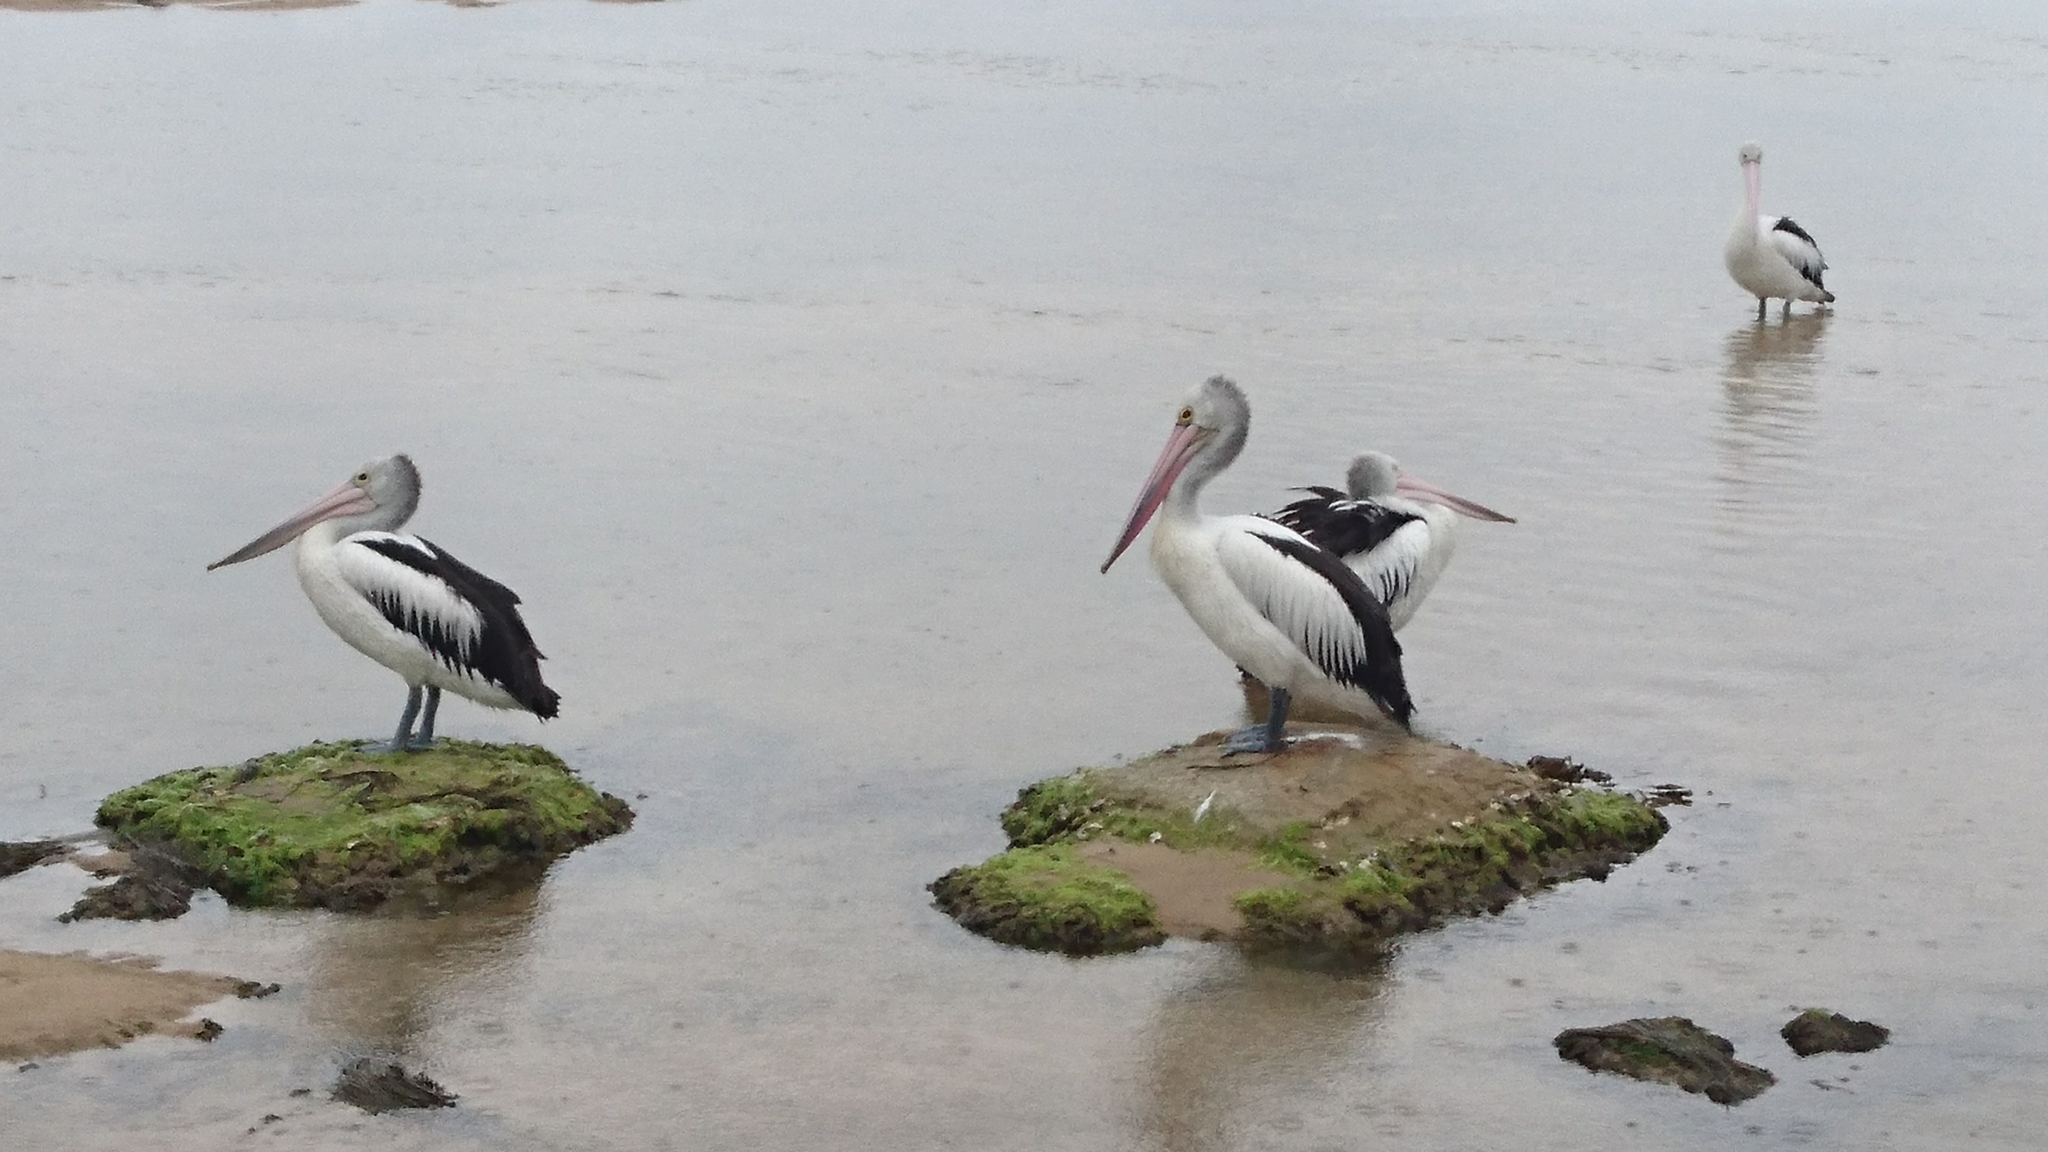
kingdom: Animalia
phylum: Chordata
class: Aves
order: Pelecaniformes
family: Pelecanidae
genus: Pelecanus
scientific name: Pelecanus conspicillatus
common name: Australian pelican
